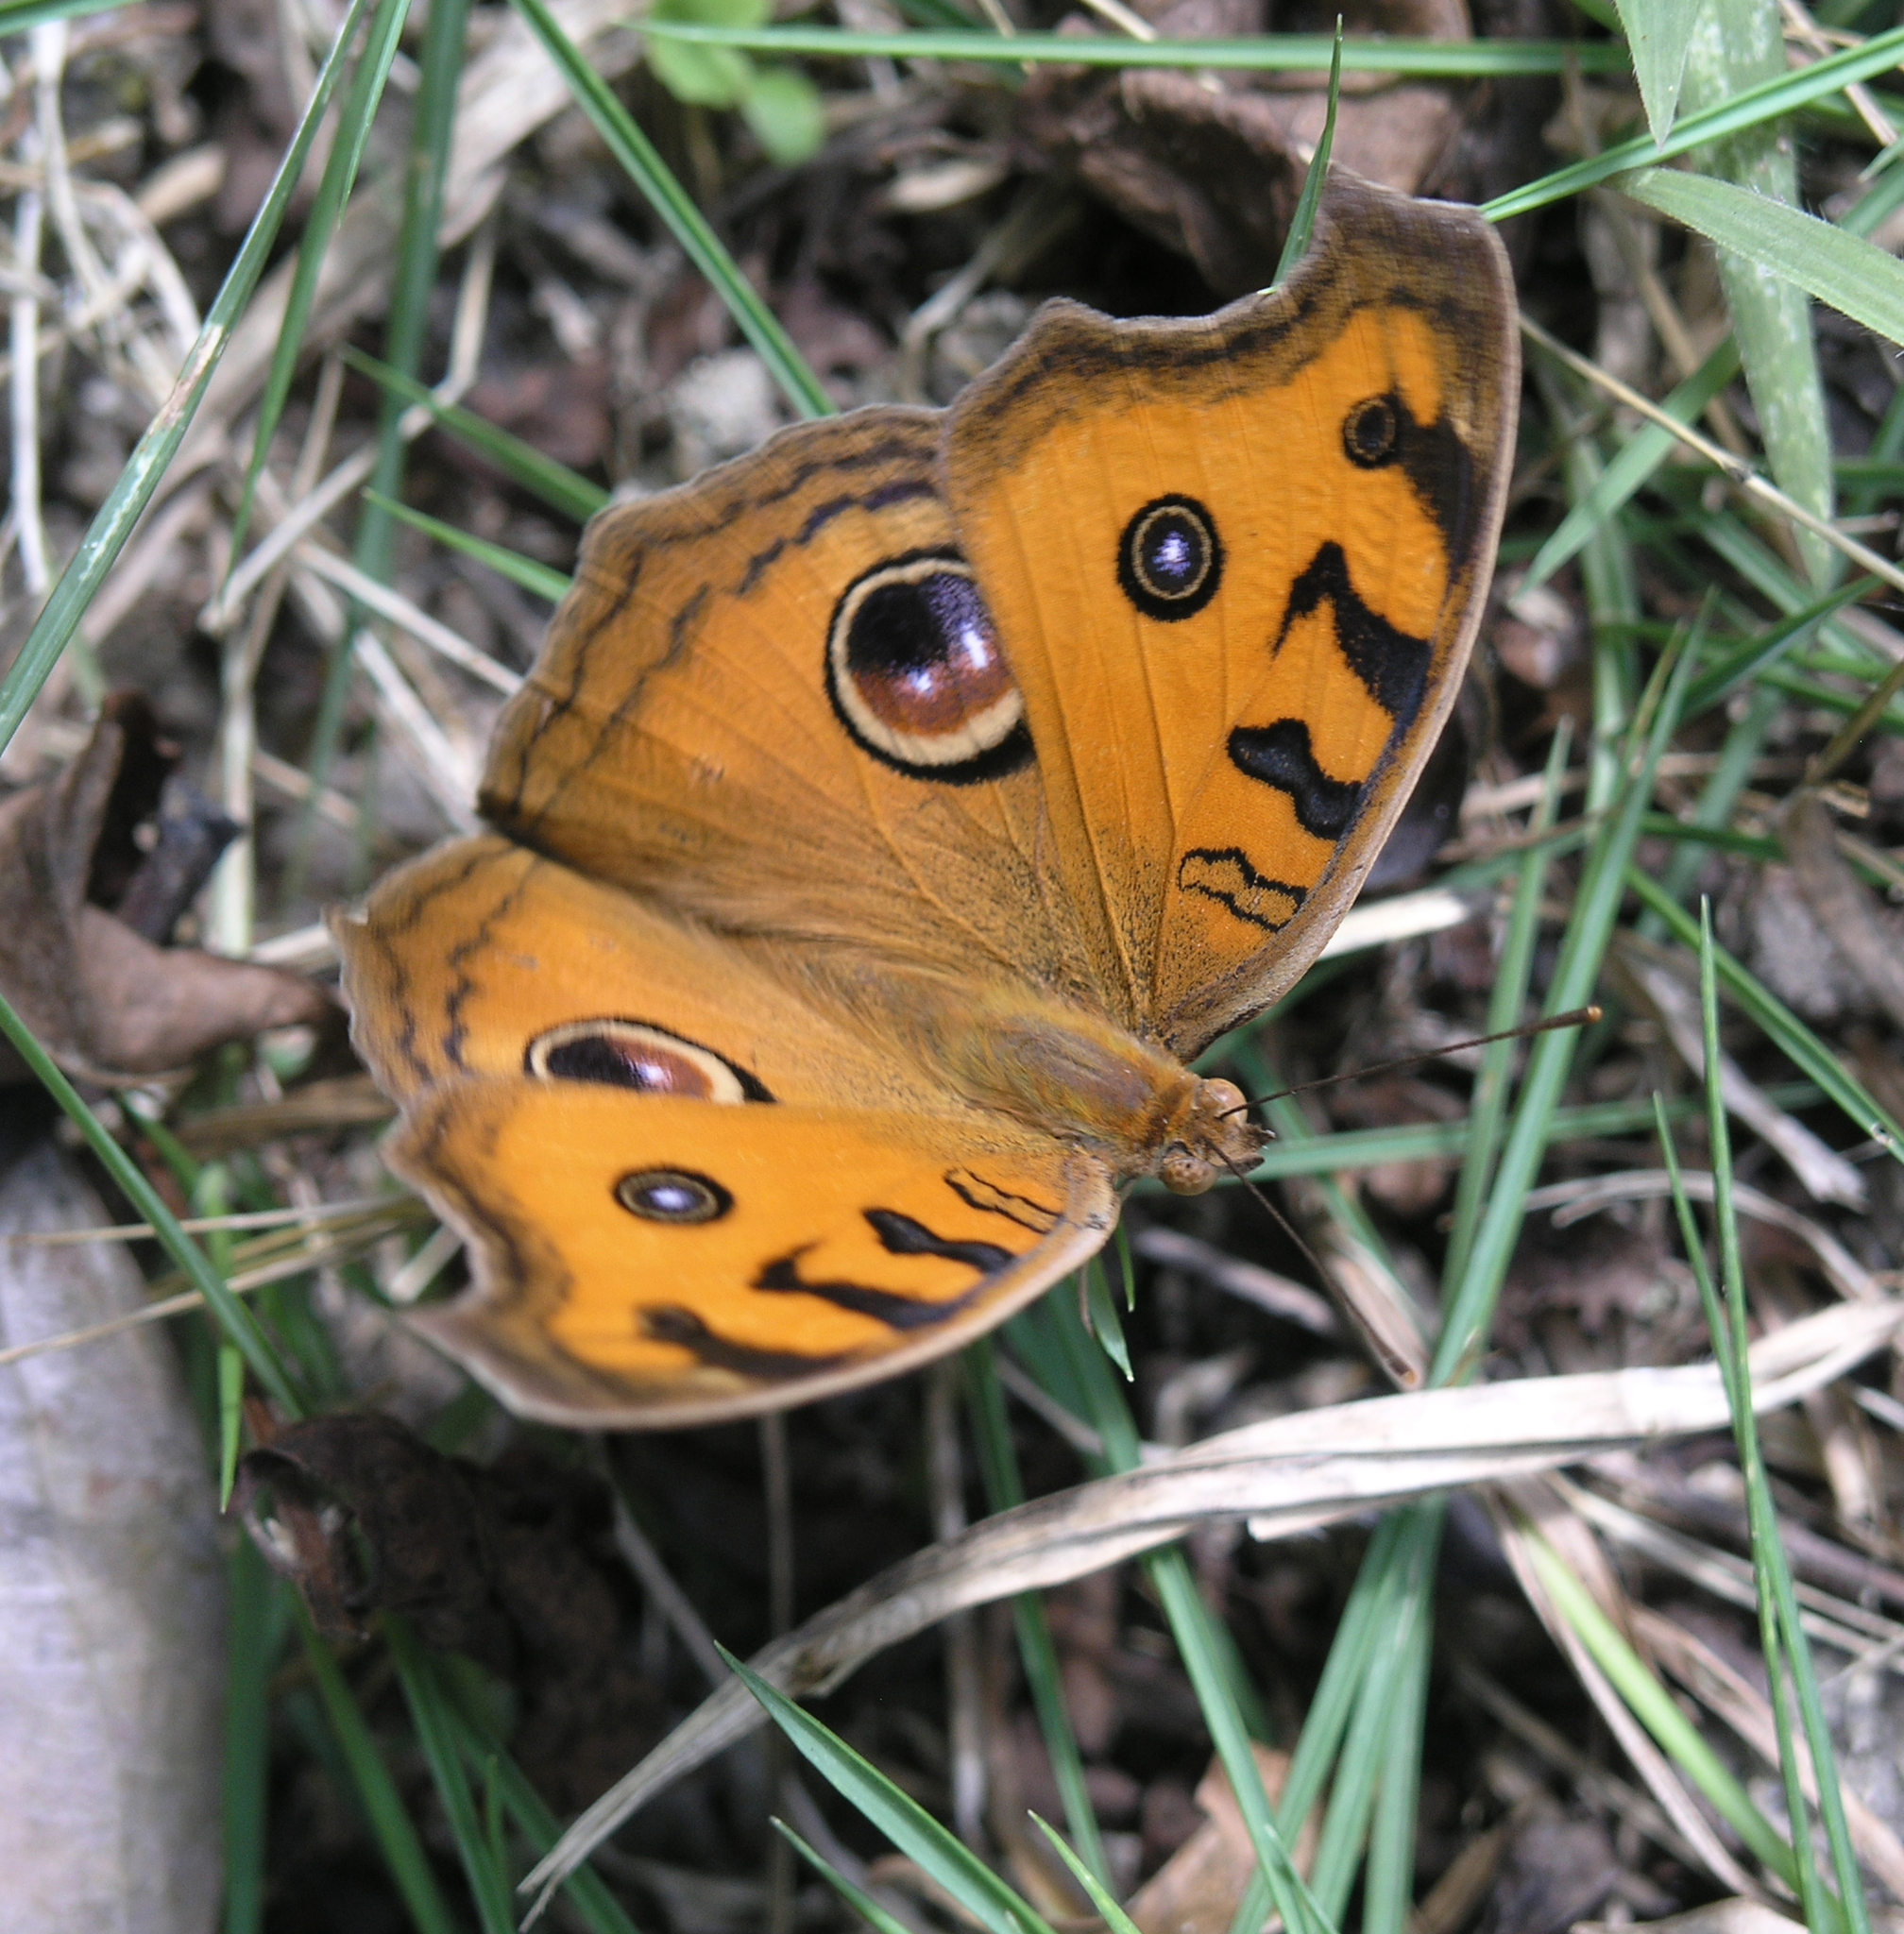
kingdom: Animalia
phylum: Arthropoda
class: Insecta
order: Lepidoptera
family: Nymphalidae
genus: Junonia
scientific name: Junonia almana
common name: Peacock pansy
